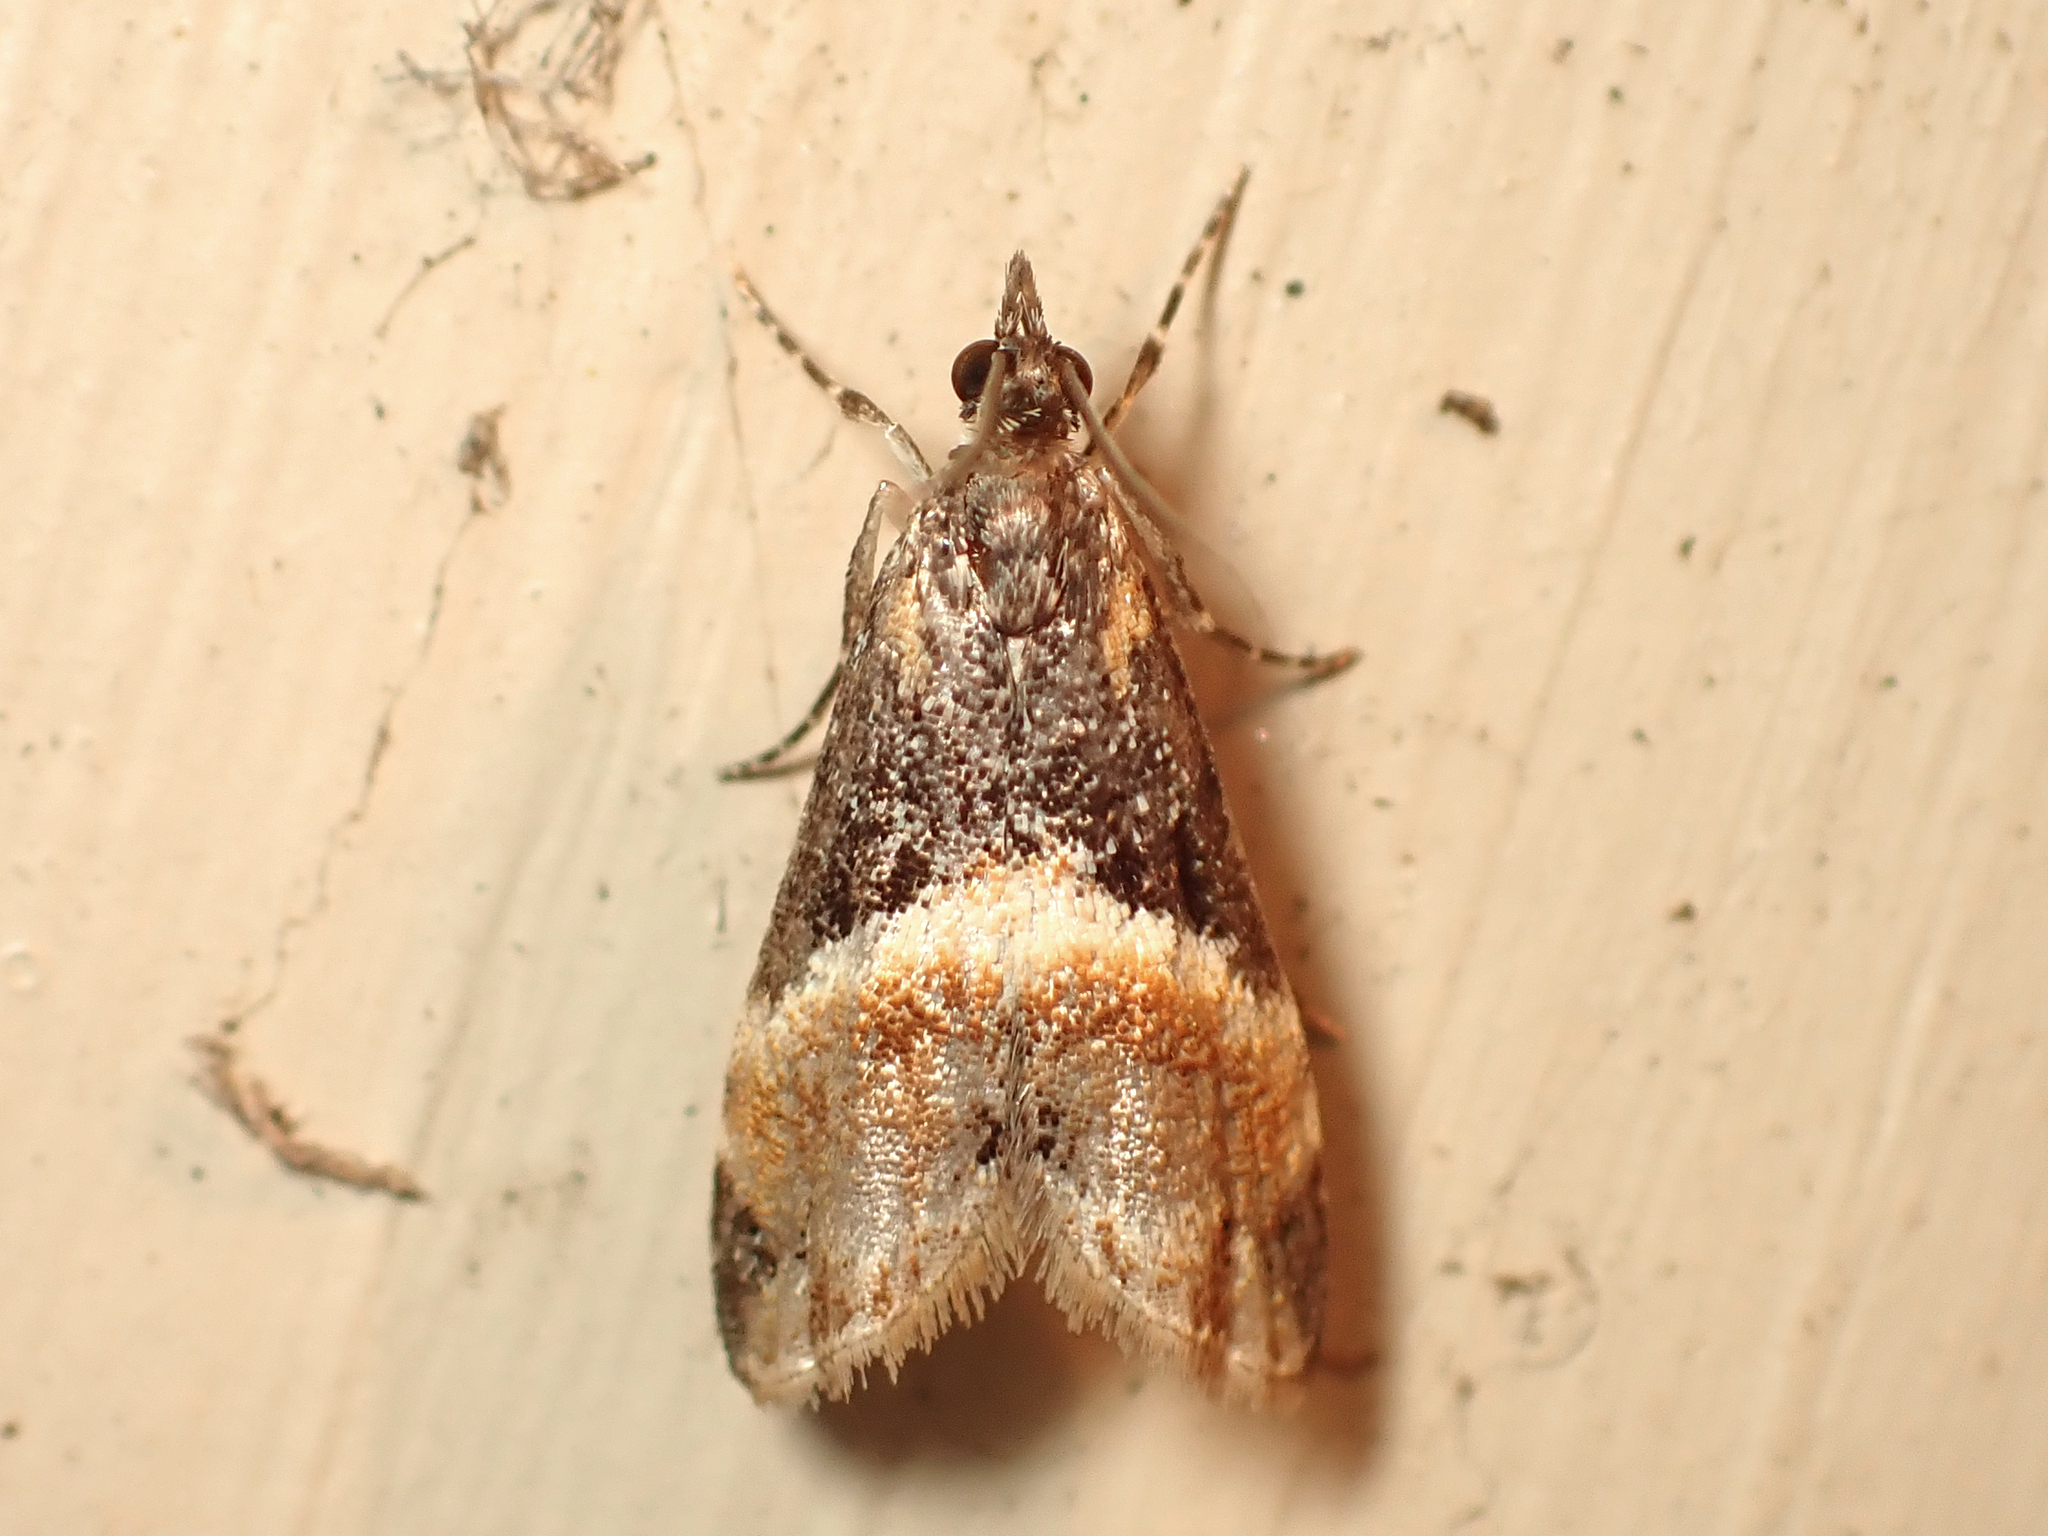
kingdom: Animalia
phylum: Arthropoda
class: Insecta
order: Lepidoptera
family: Crambidae
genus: Eudonia
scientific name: Eudonia chlamydota
